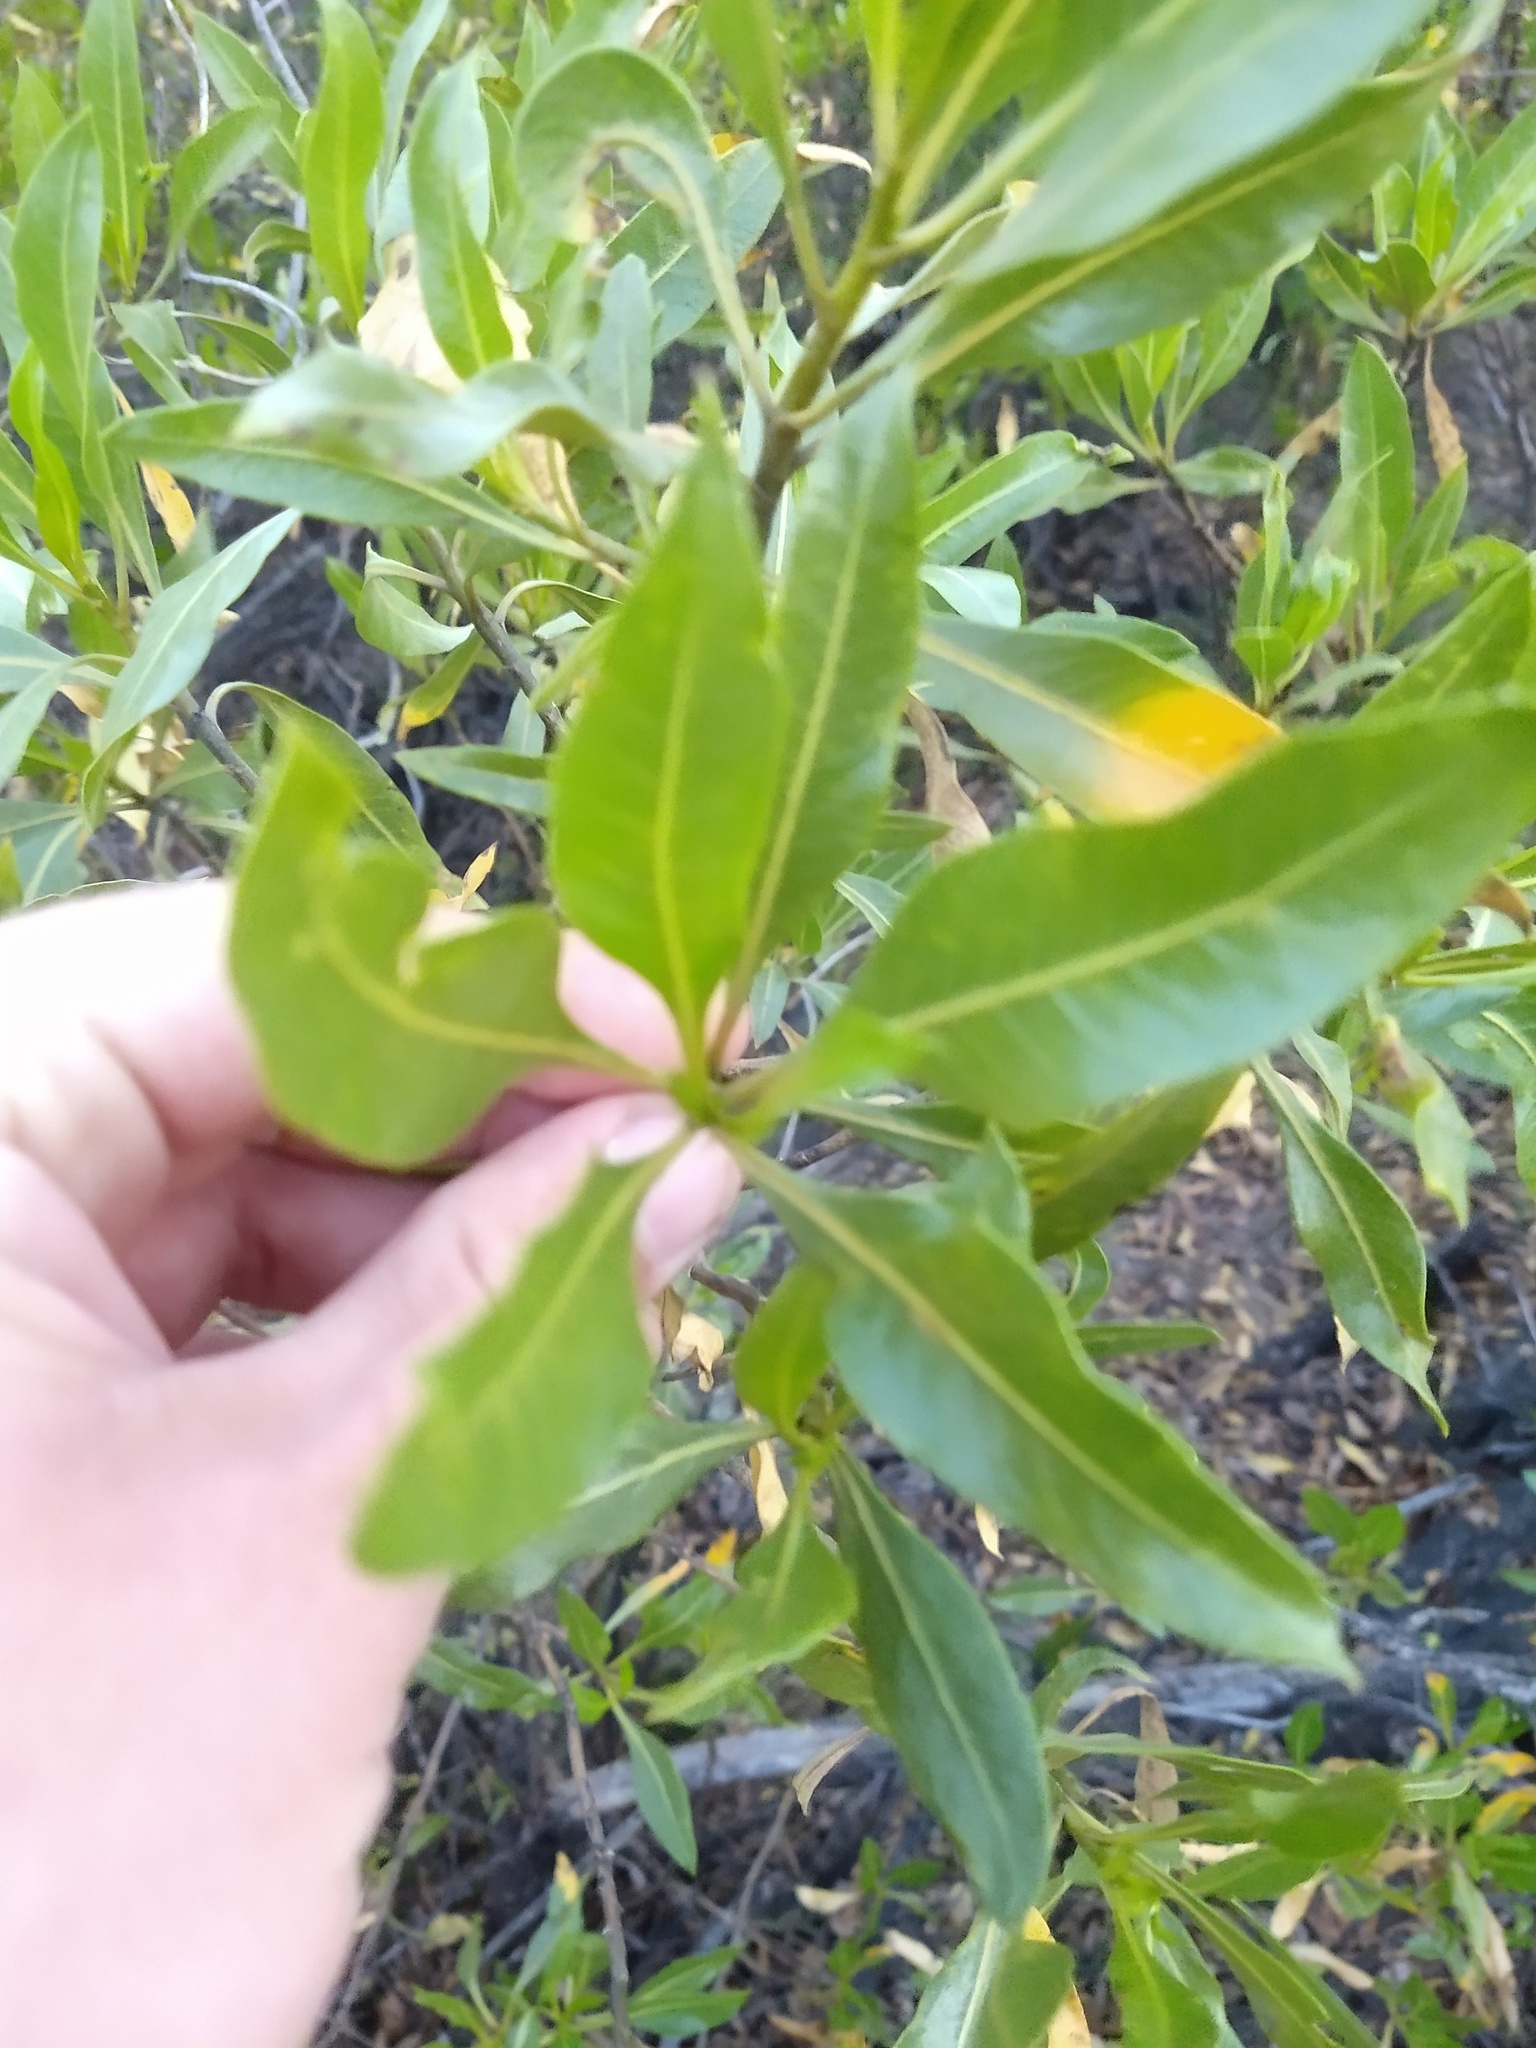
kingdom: Plantae
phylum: Tracheophyta
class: Magnoliopsida
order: Asterales
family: Asteraceae
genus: Flourensia
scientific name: Flourensia thurifera
